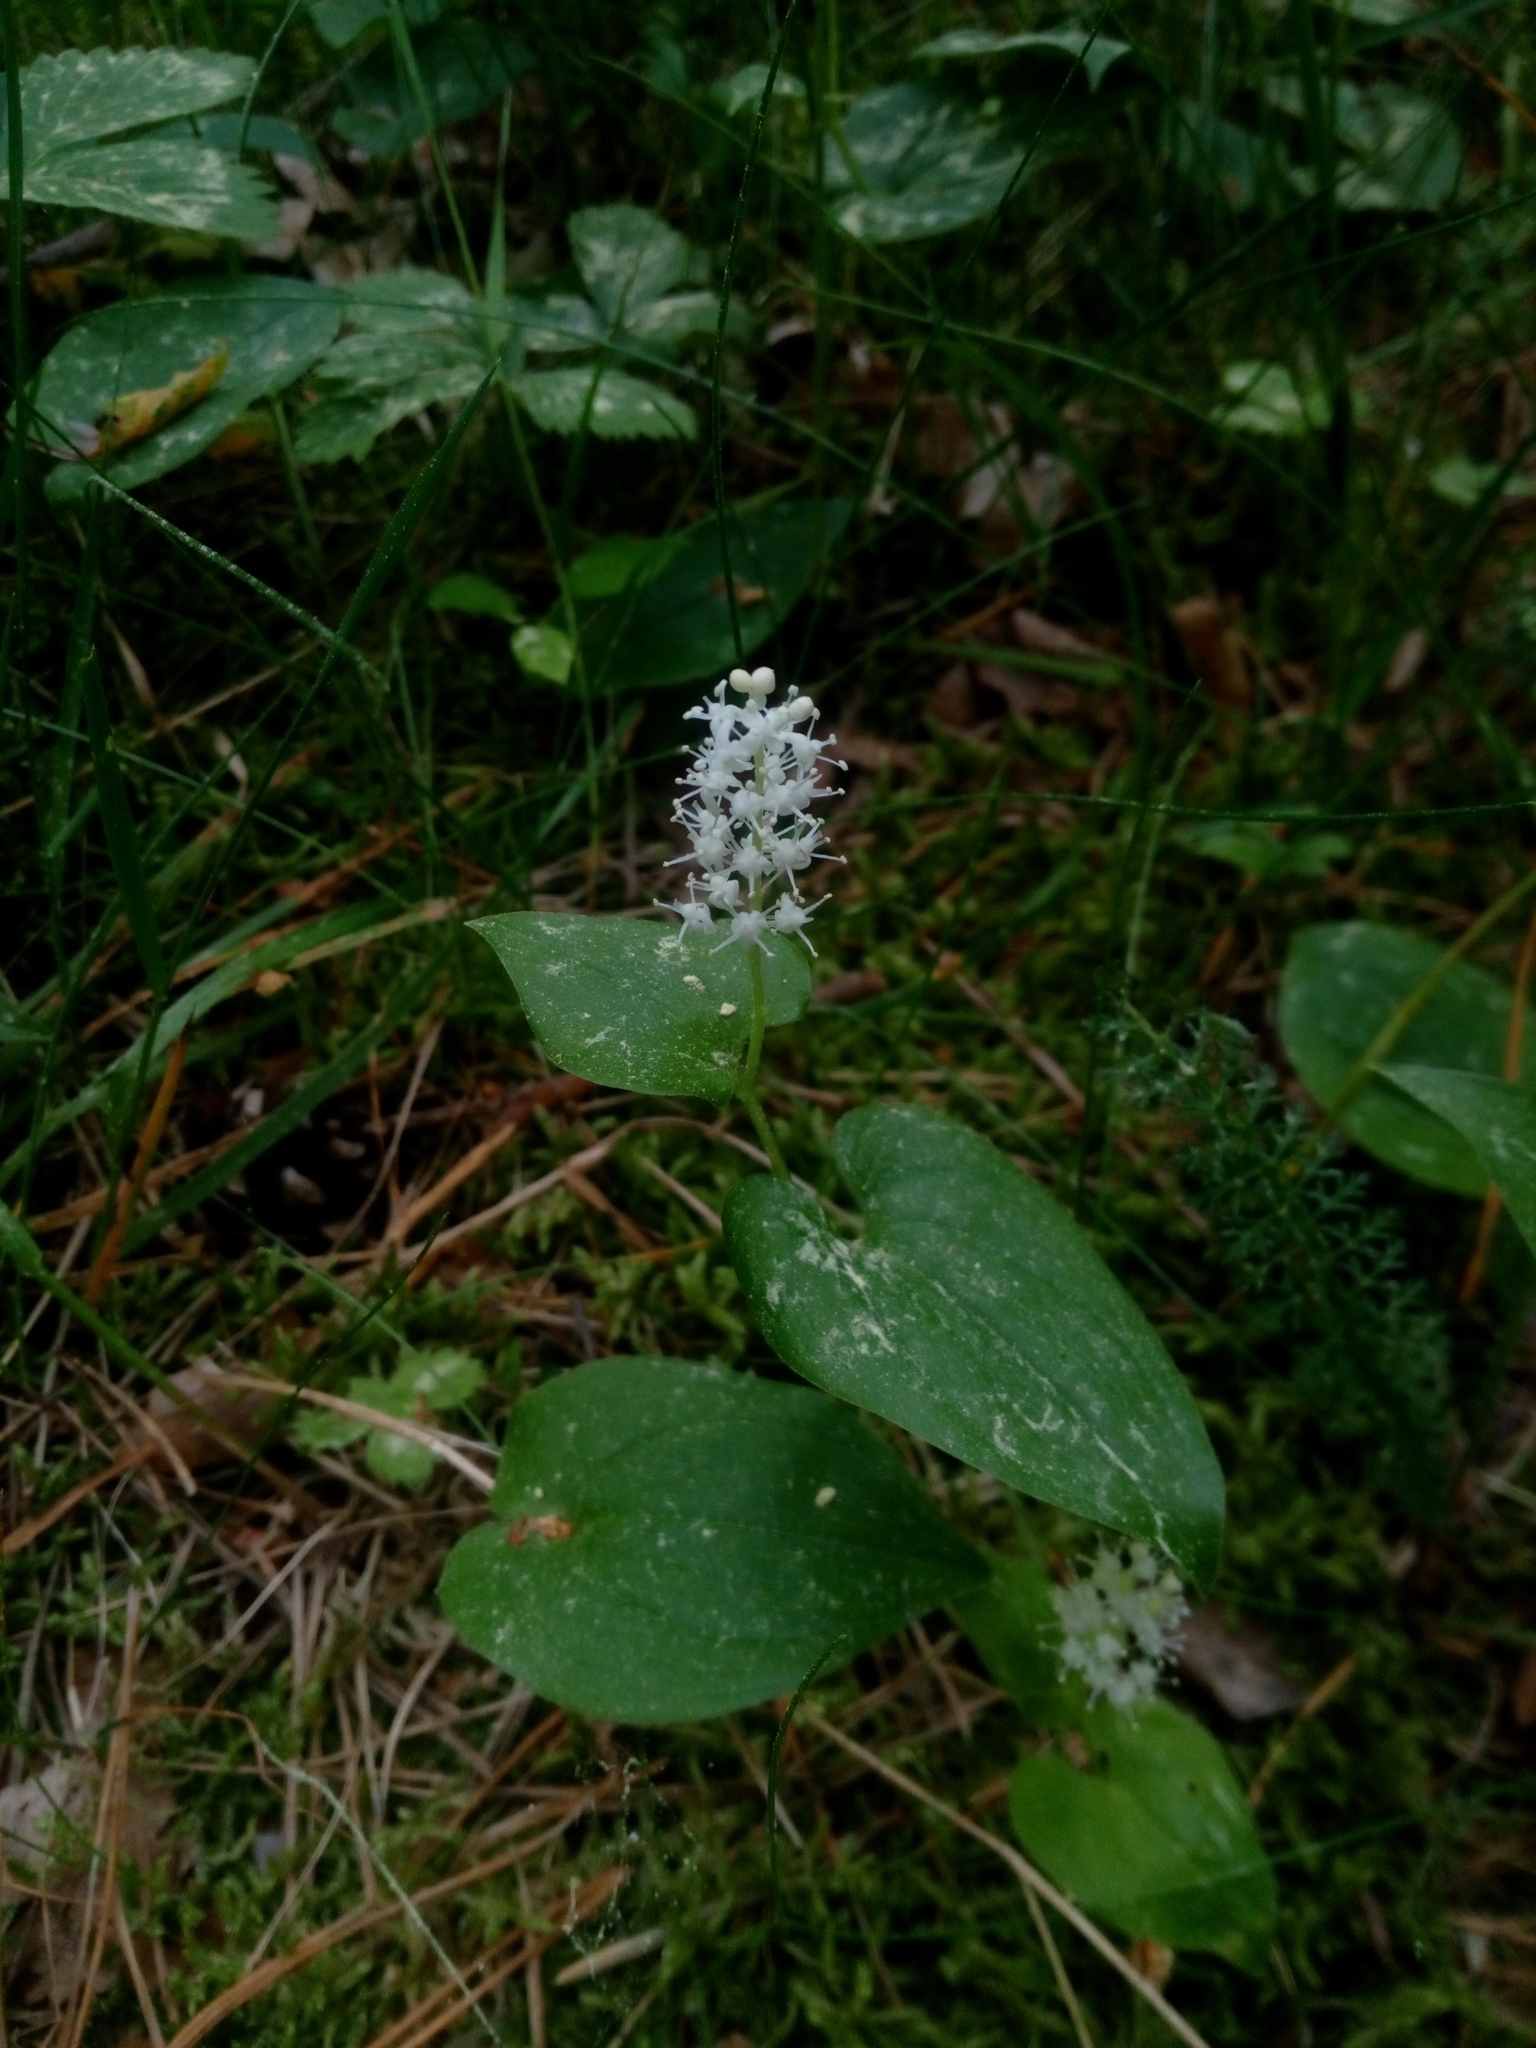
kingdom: Plantae
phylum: Tracheophyta
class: Liliopsida
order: Asparagales
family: Asparagaceae
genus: Maianthemum
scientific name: Maianthemum bifolium
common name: May lily
